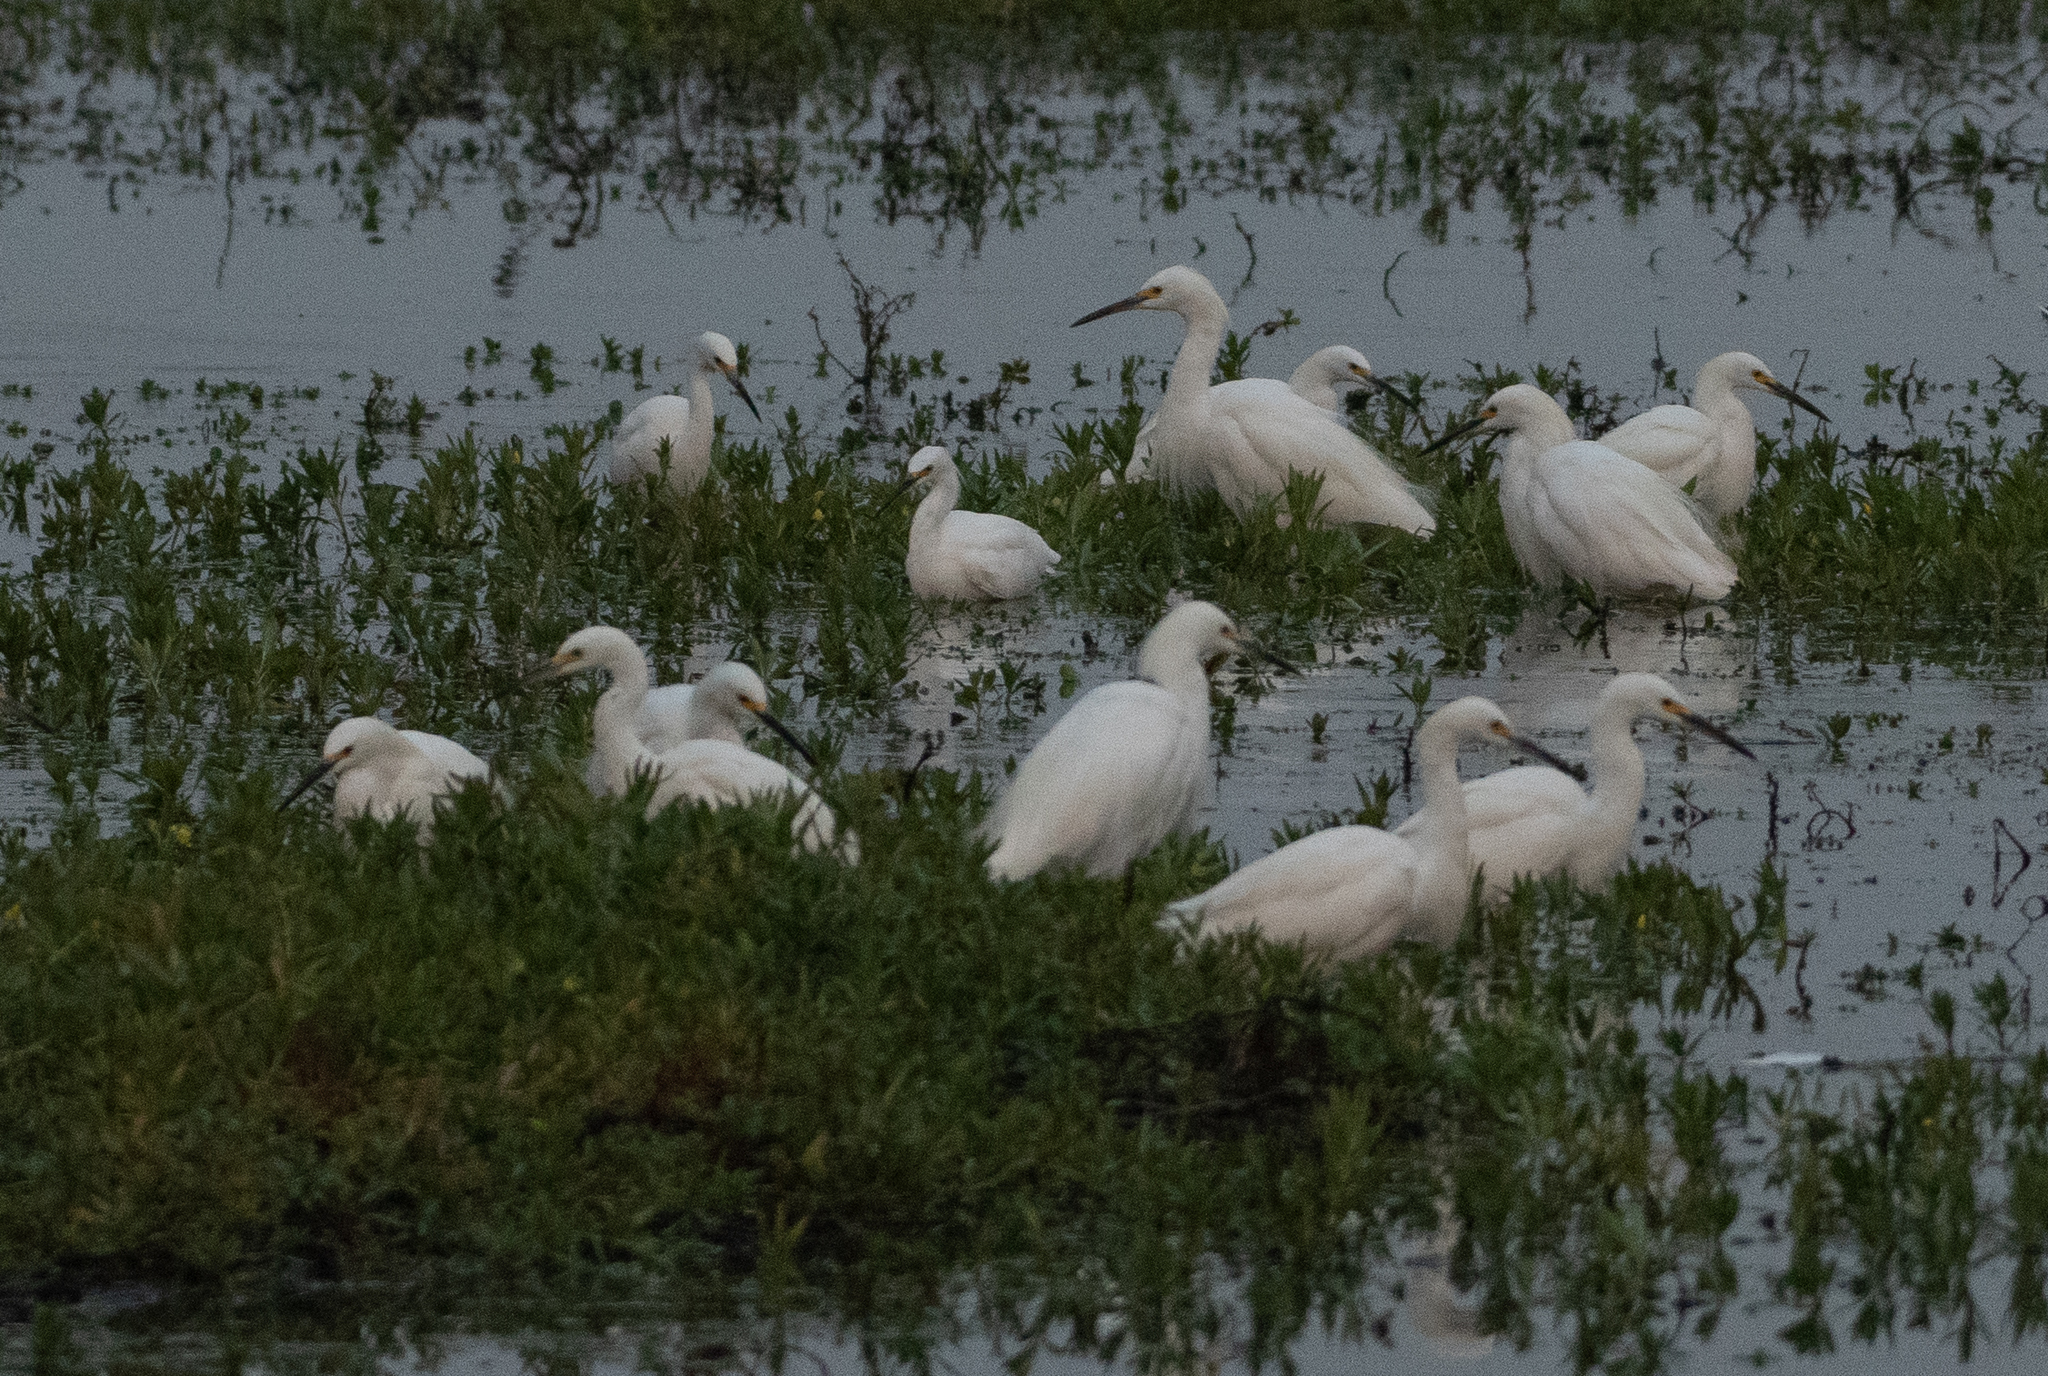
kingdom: Animalia
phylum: Chordata
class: Aves
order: Pelecaniformes
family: Ardeidae
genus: Egretta
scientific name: Egretta thula
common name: Snowy egret
